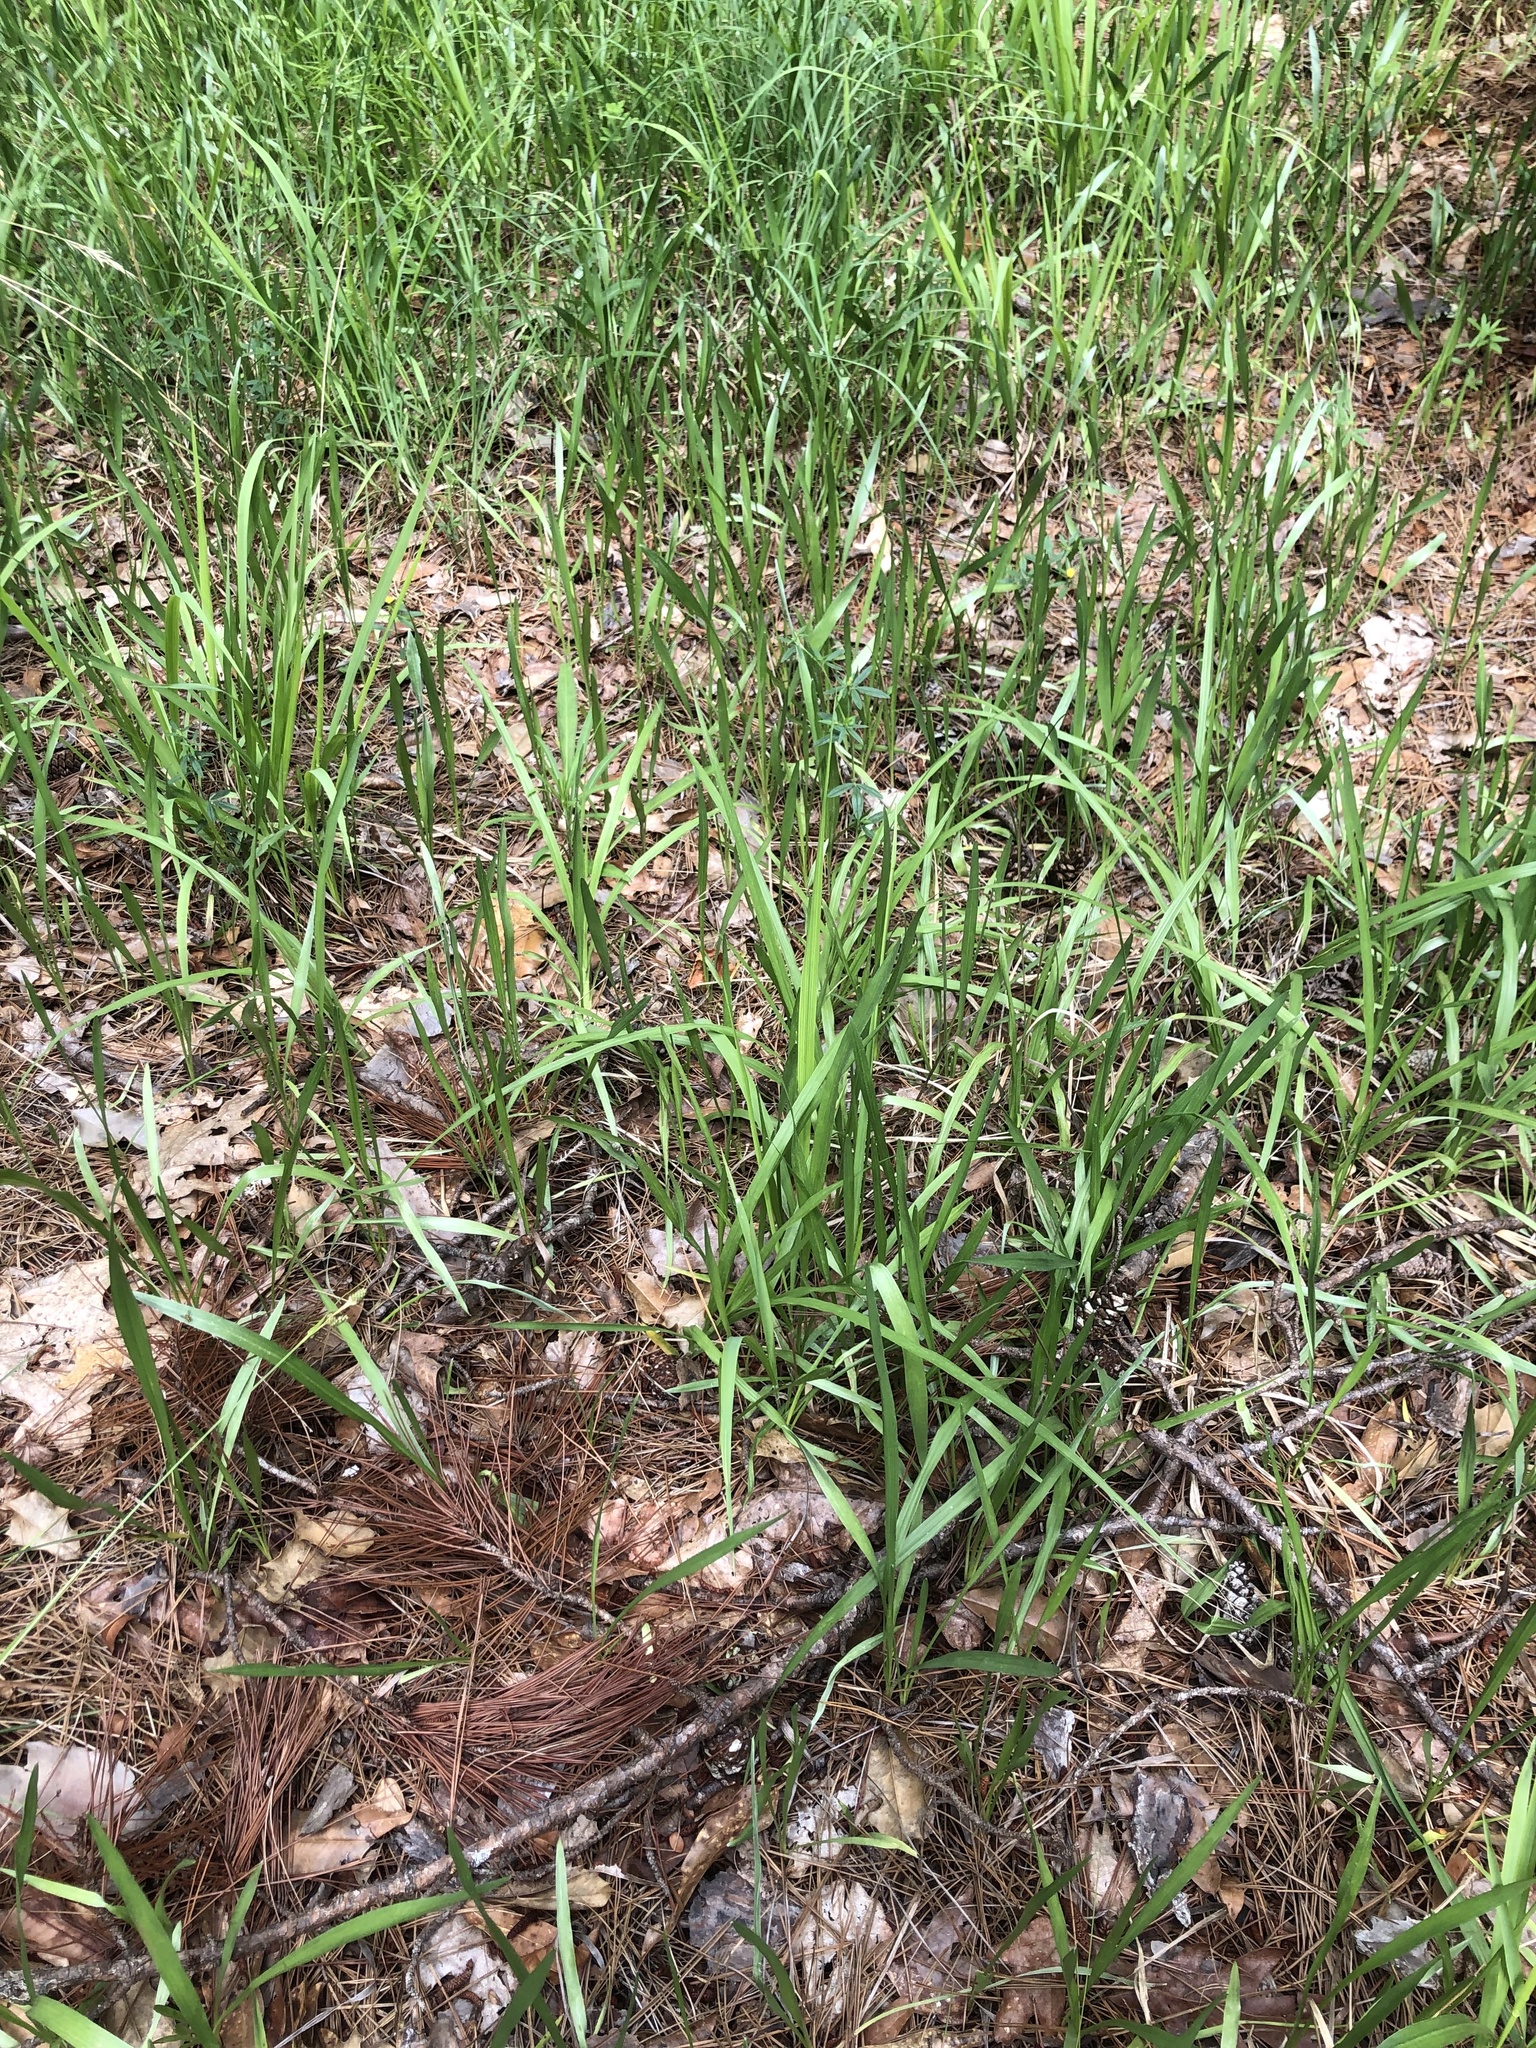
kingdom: Plantae
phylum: Tracheophyta
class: Magnoliopsida
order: Asterales
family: Asteraceae
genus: Pityopsis
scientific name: Pityopsis graminifolia
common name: Grass-leaf golden-aster
